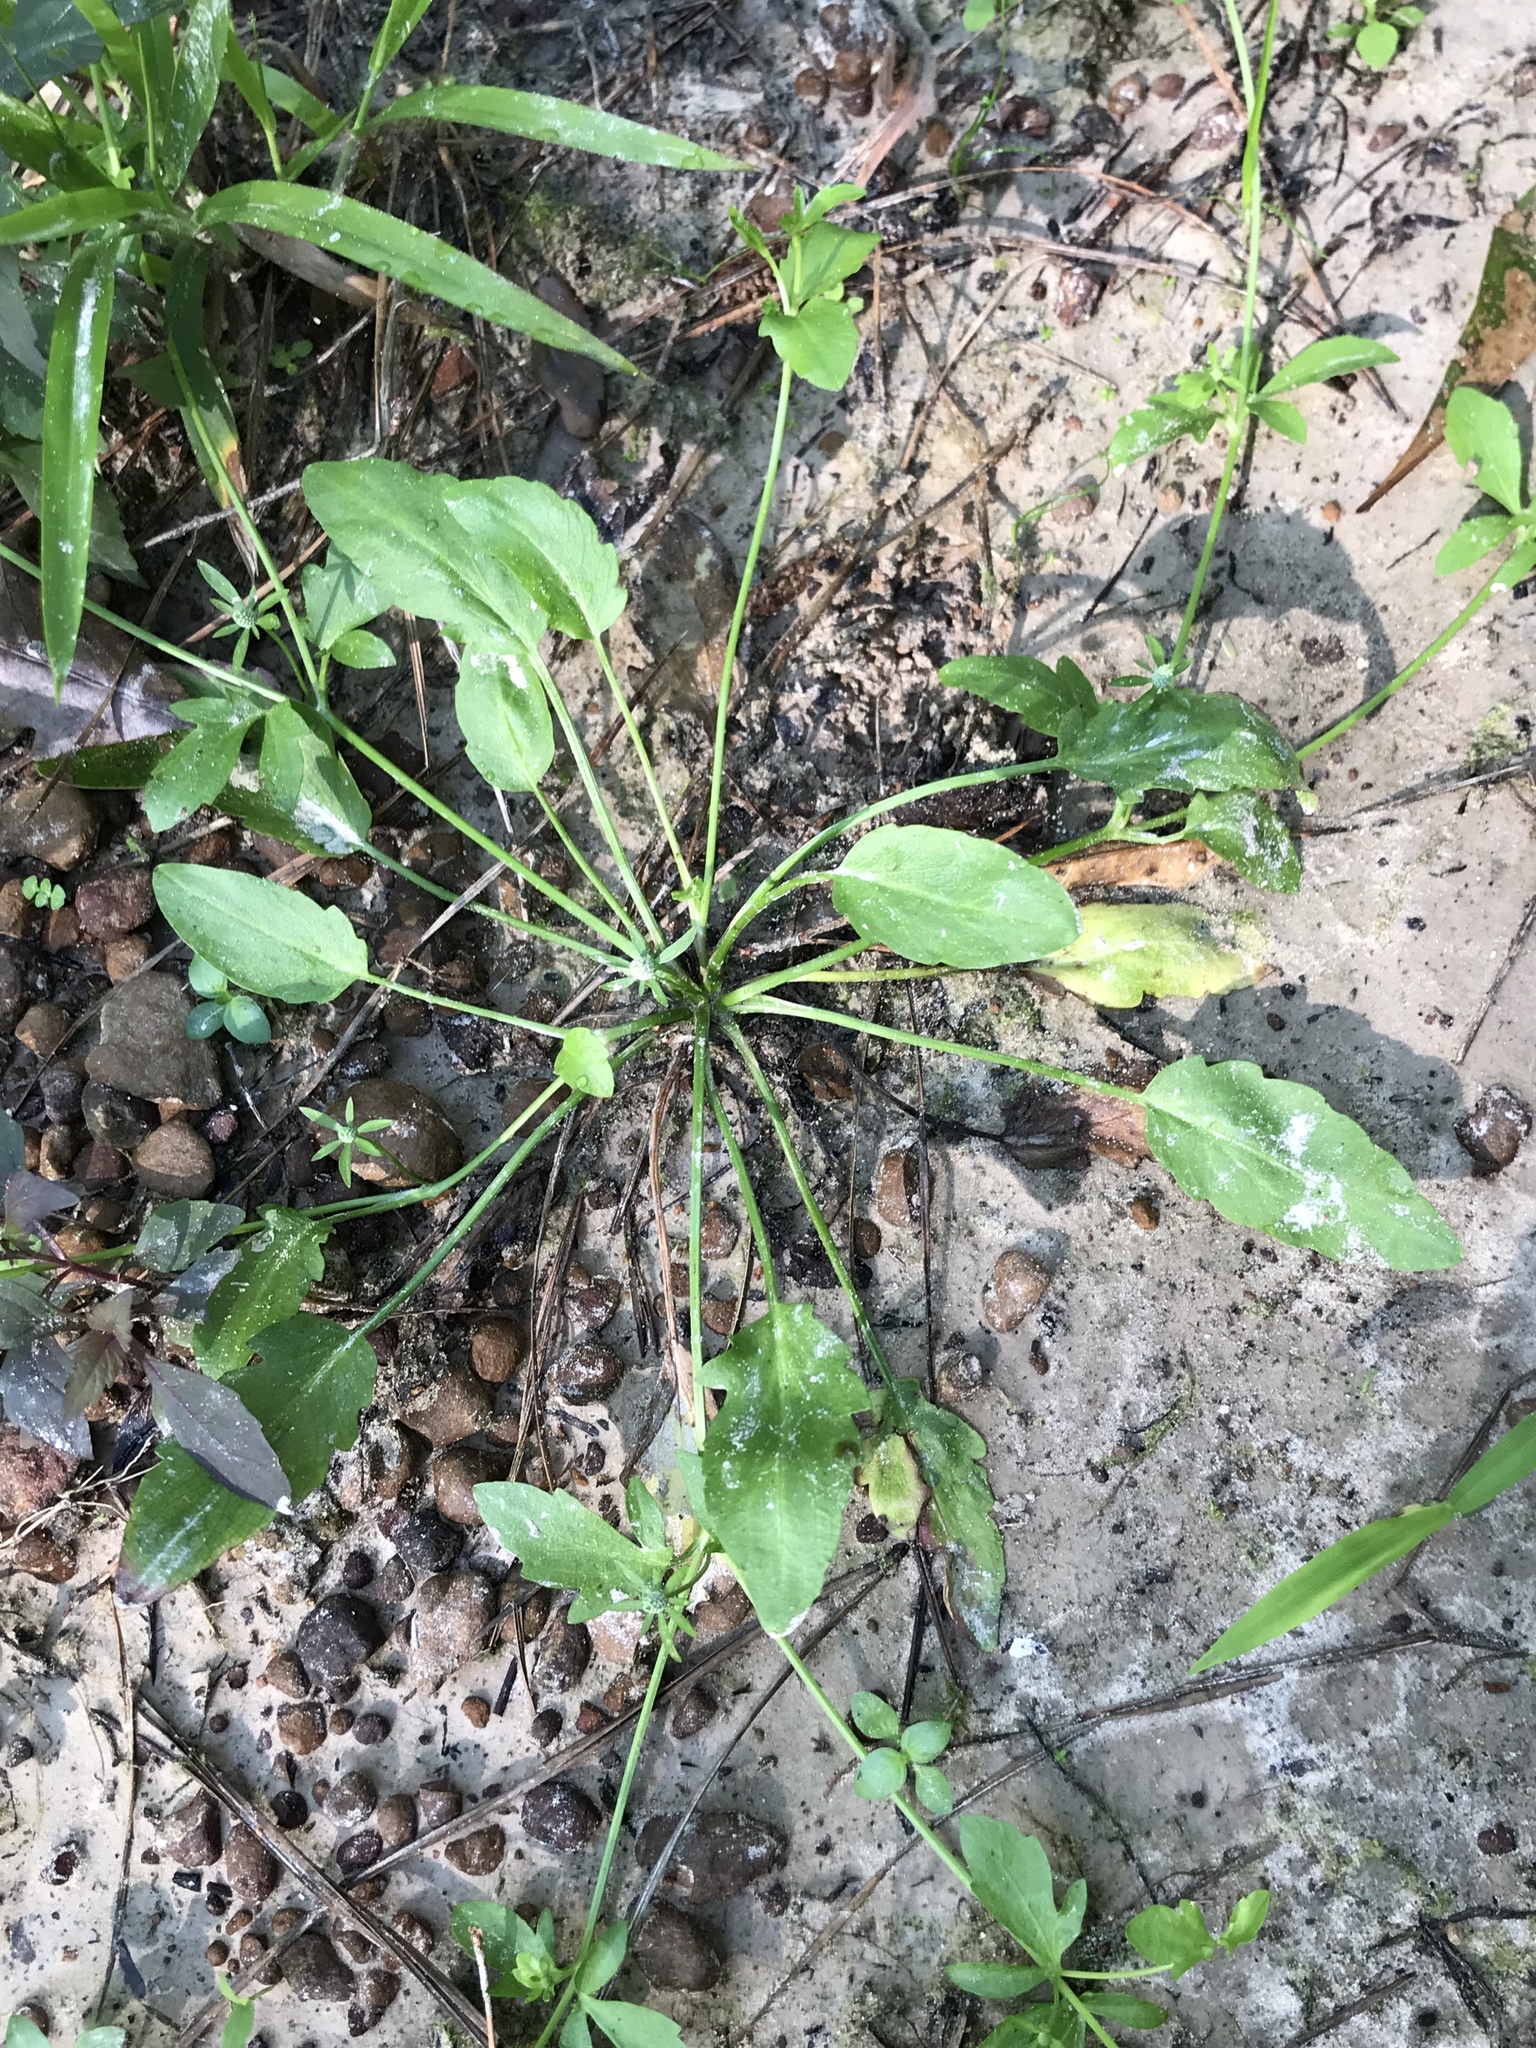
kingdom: Plantae
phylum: Tracheophyta
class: Magnoliopsida
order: Apiales
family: Apiaceae
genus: Eryngium
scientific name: Eryngium prostratum
